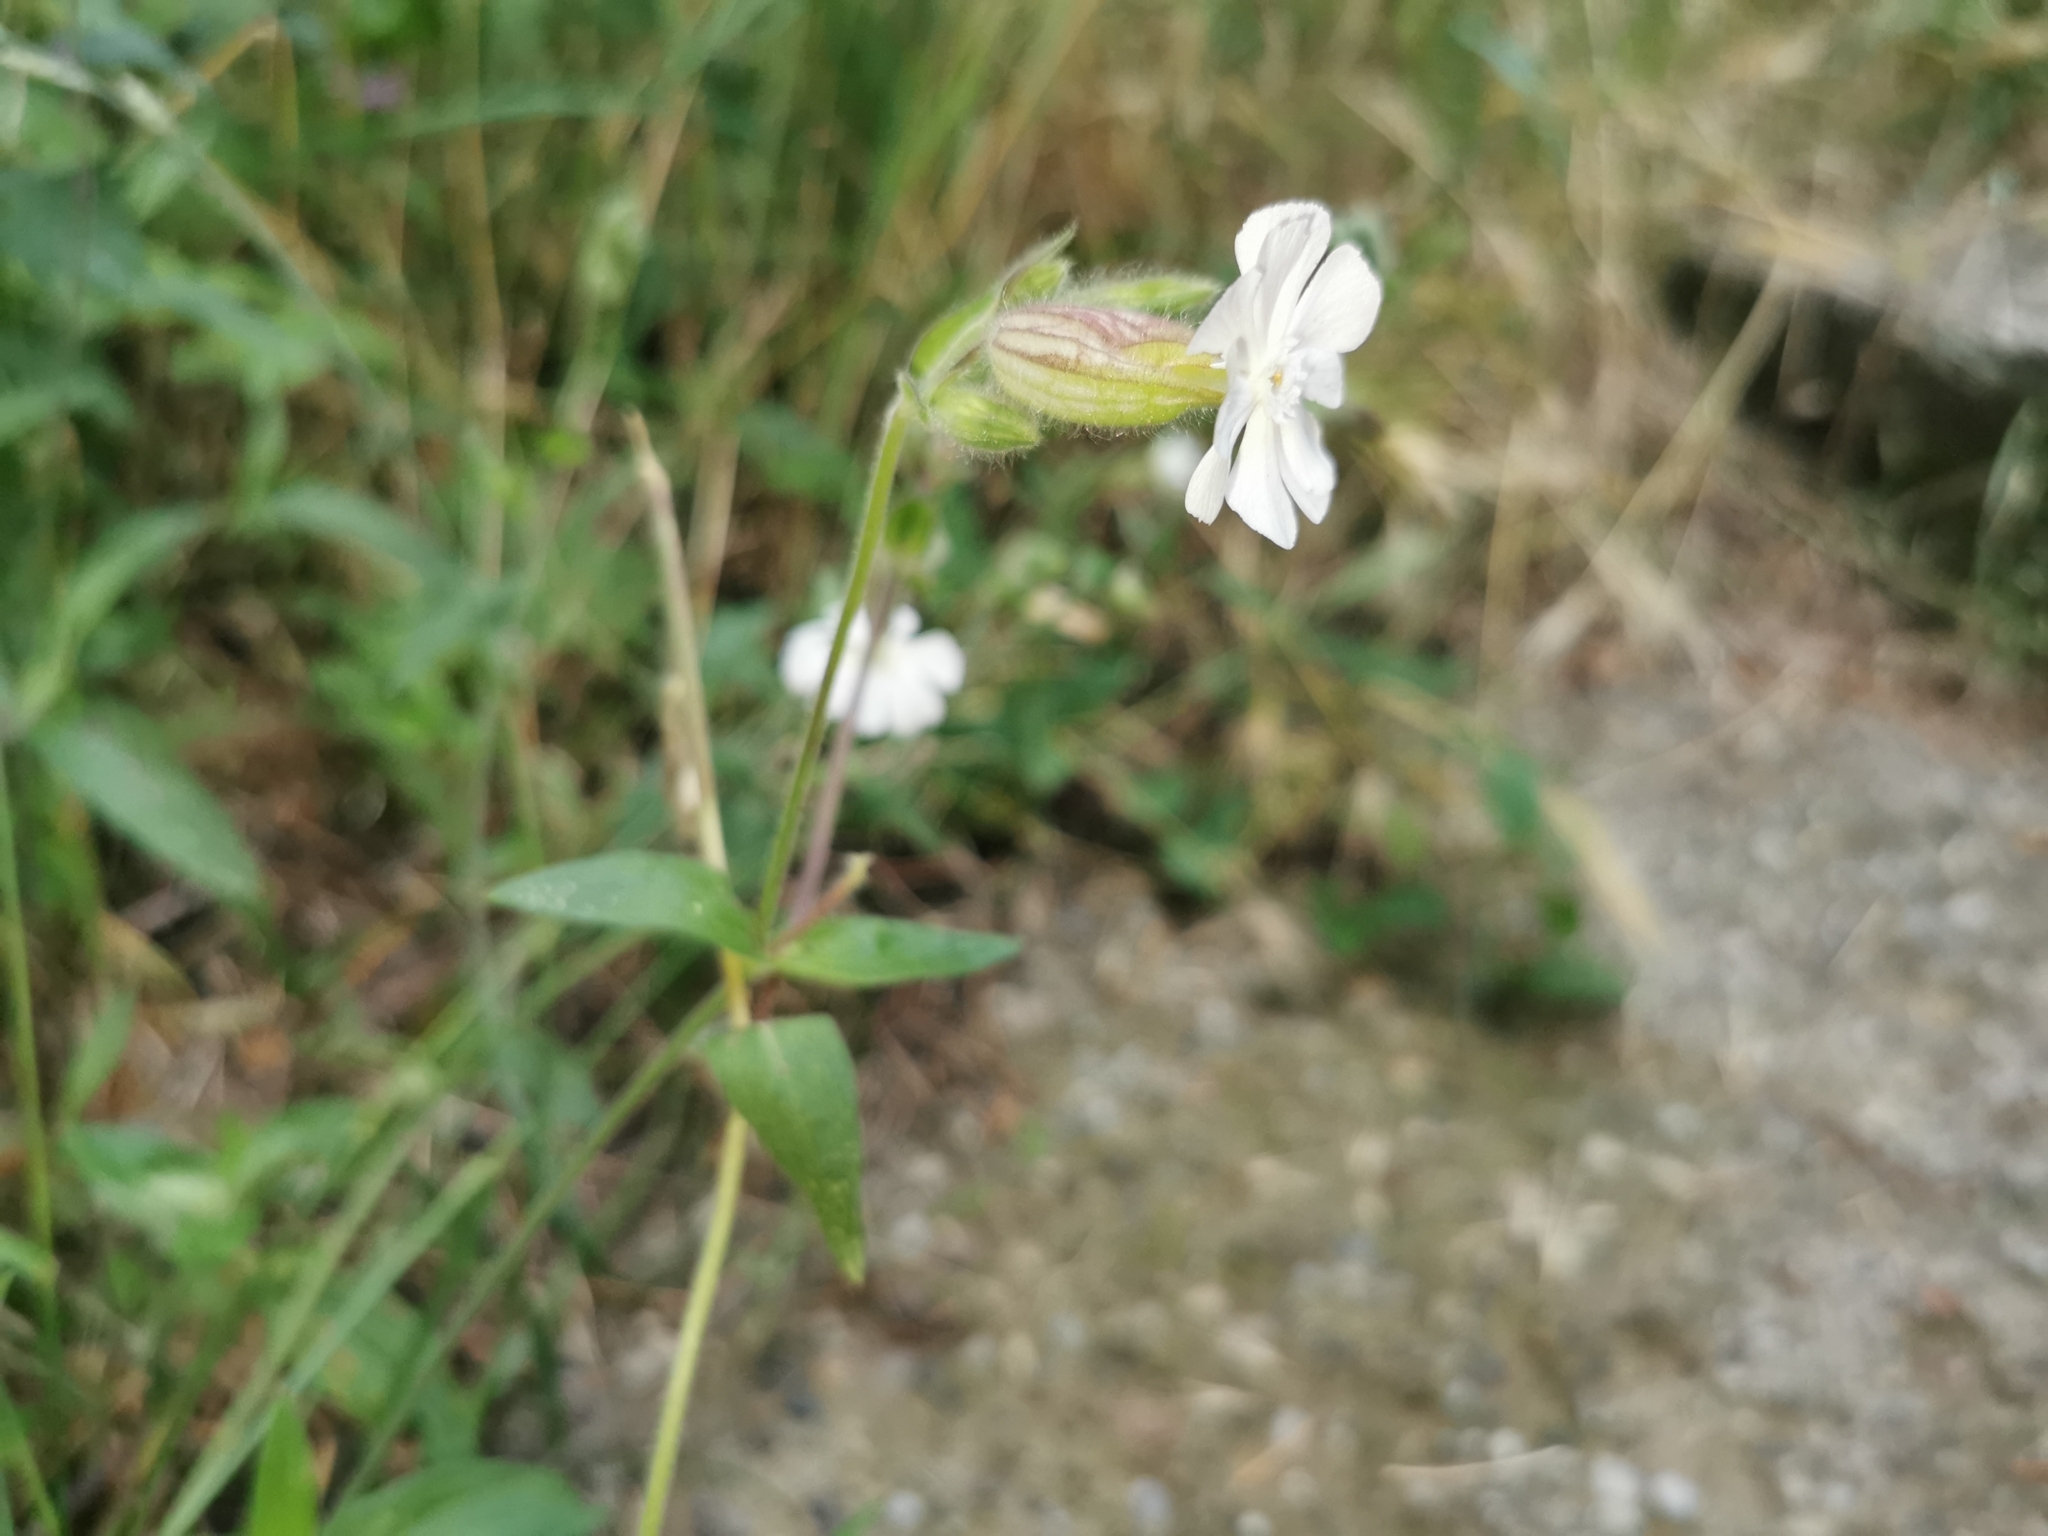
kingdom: Plantae
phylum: Tracheophyta
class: Magnoliopsida
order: Caryophyllales
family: Caryophyllaceae
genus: Silene
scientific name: Silene latifolia
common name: White campion
